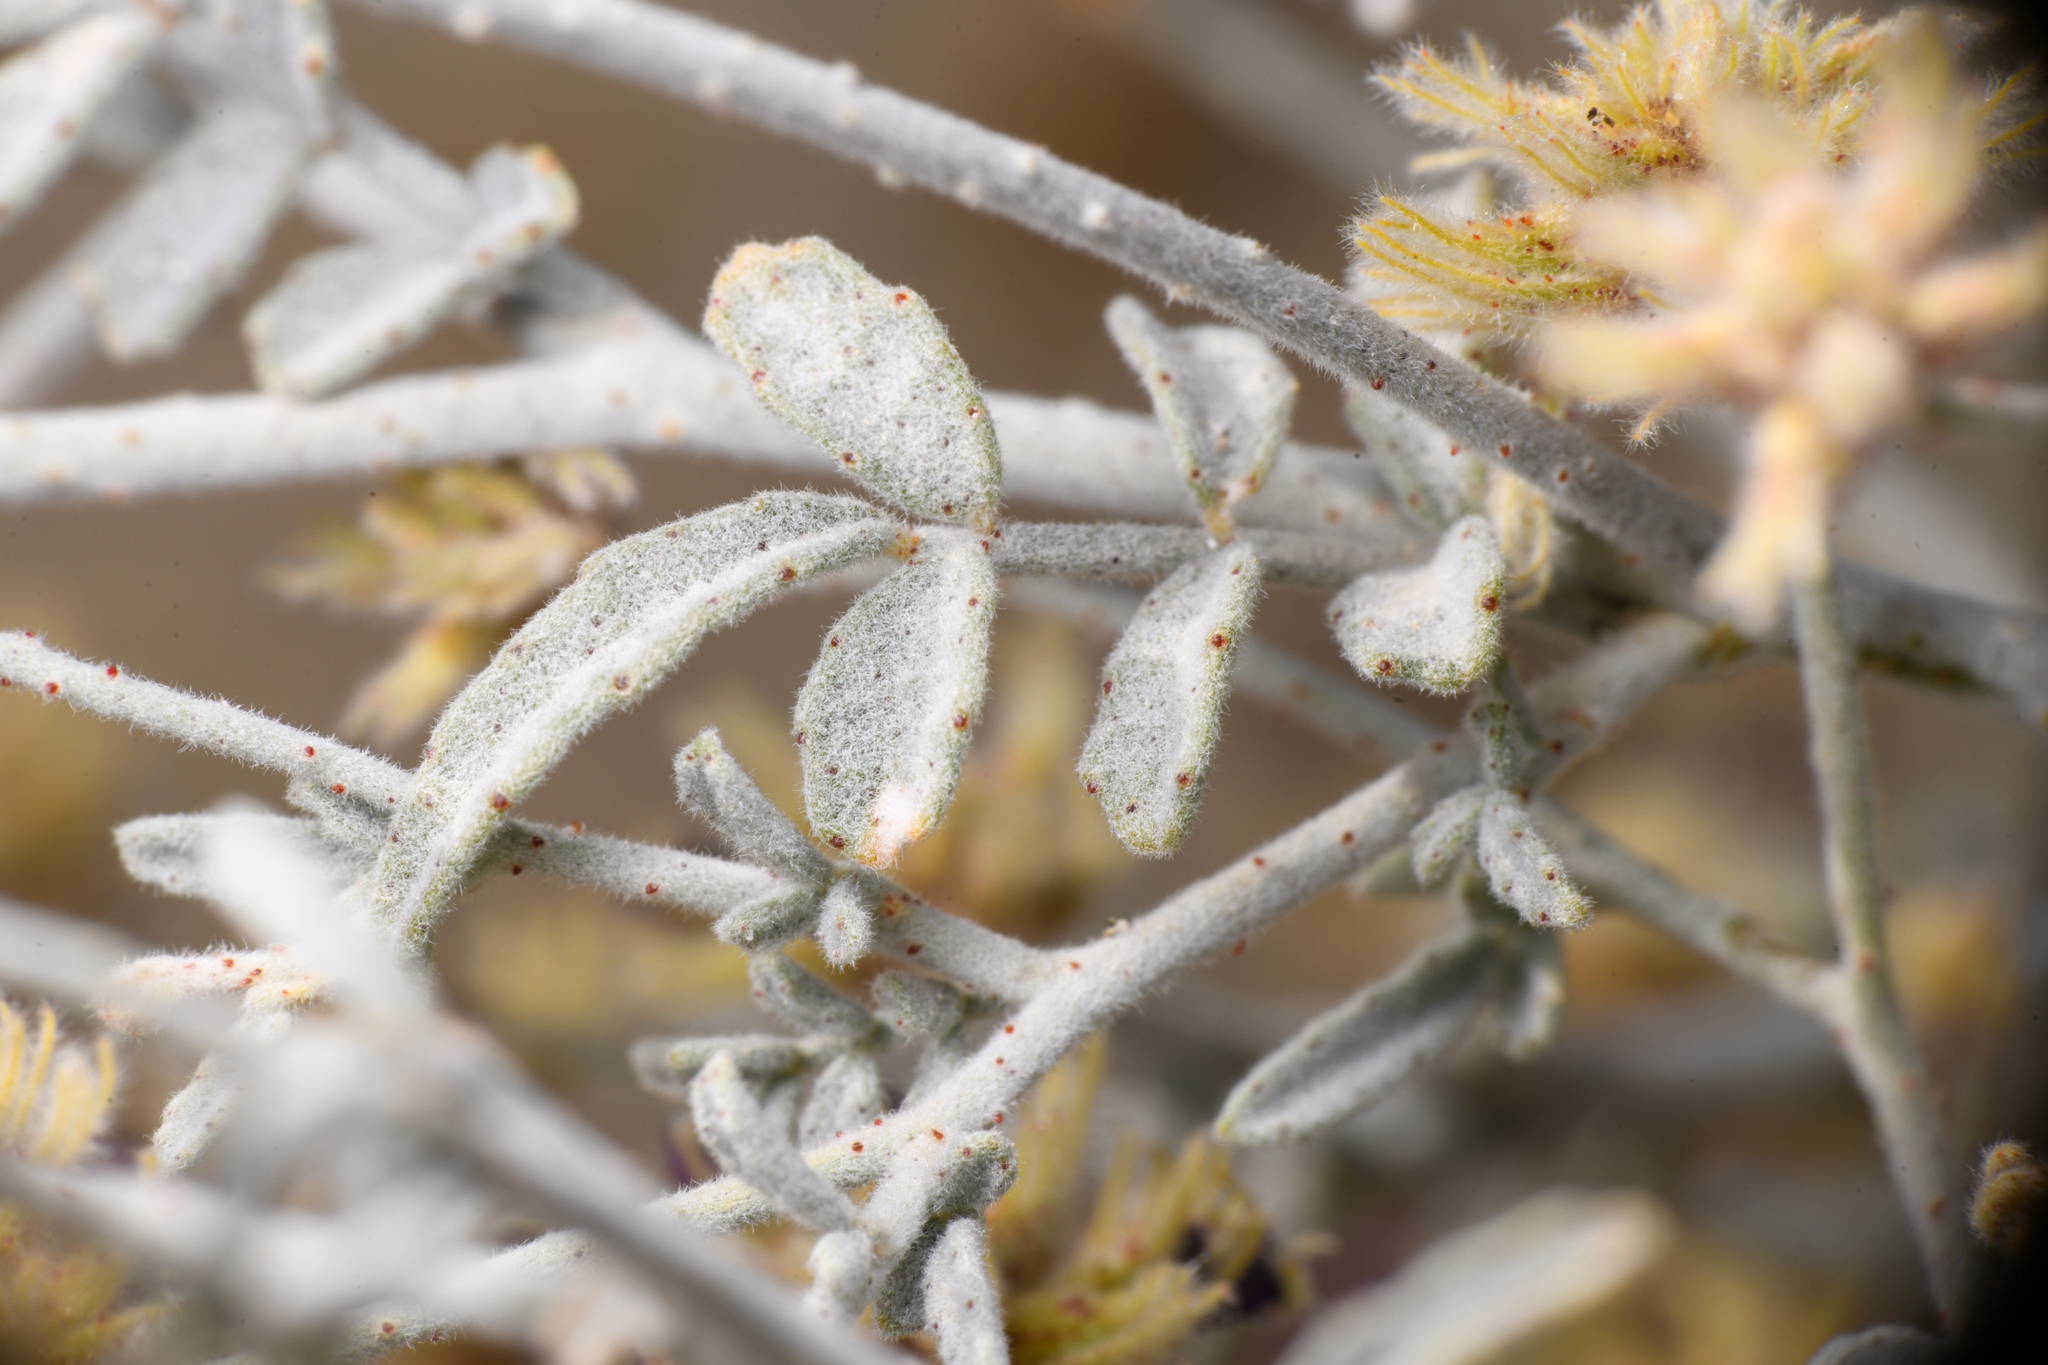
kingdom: Plantae
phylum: Tracheophyta
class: Magnoliopsida
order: Fabales
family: Fabaceae
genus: Psorothamnus
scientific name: Psorothamnus emoryi
